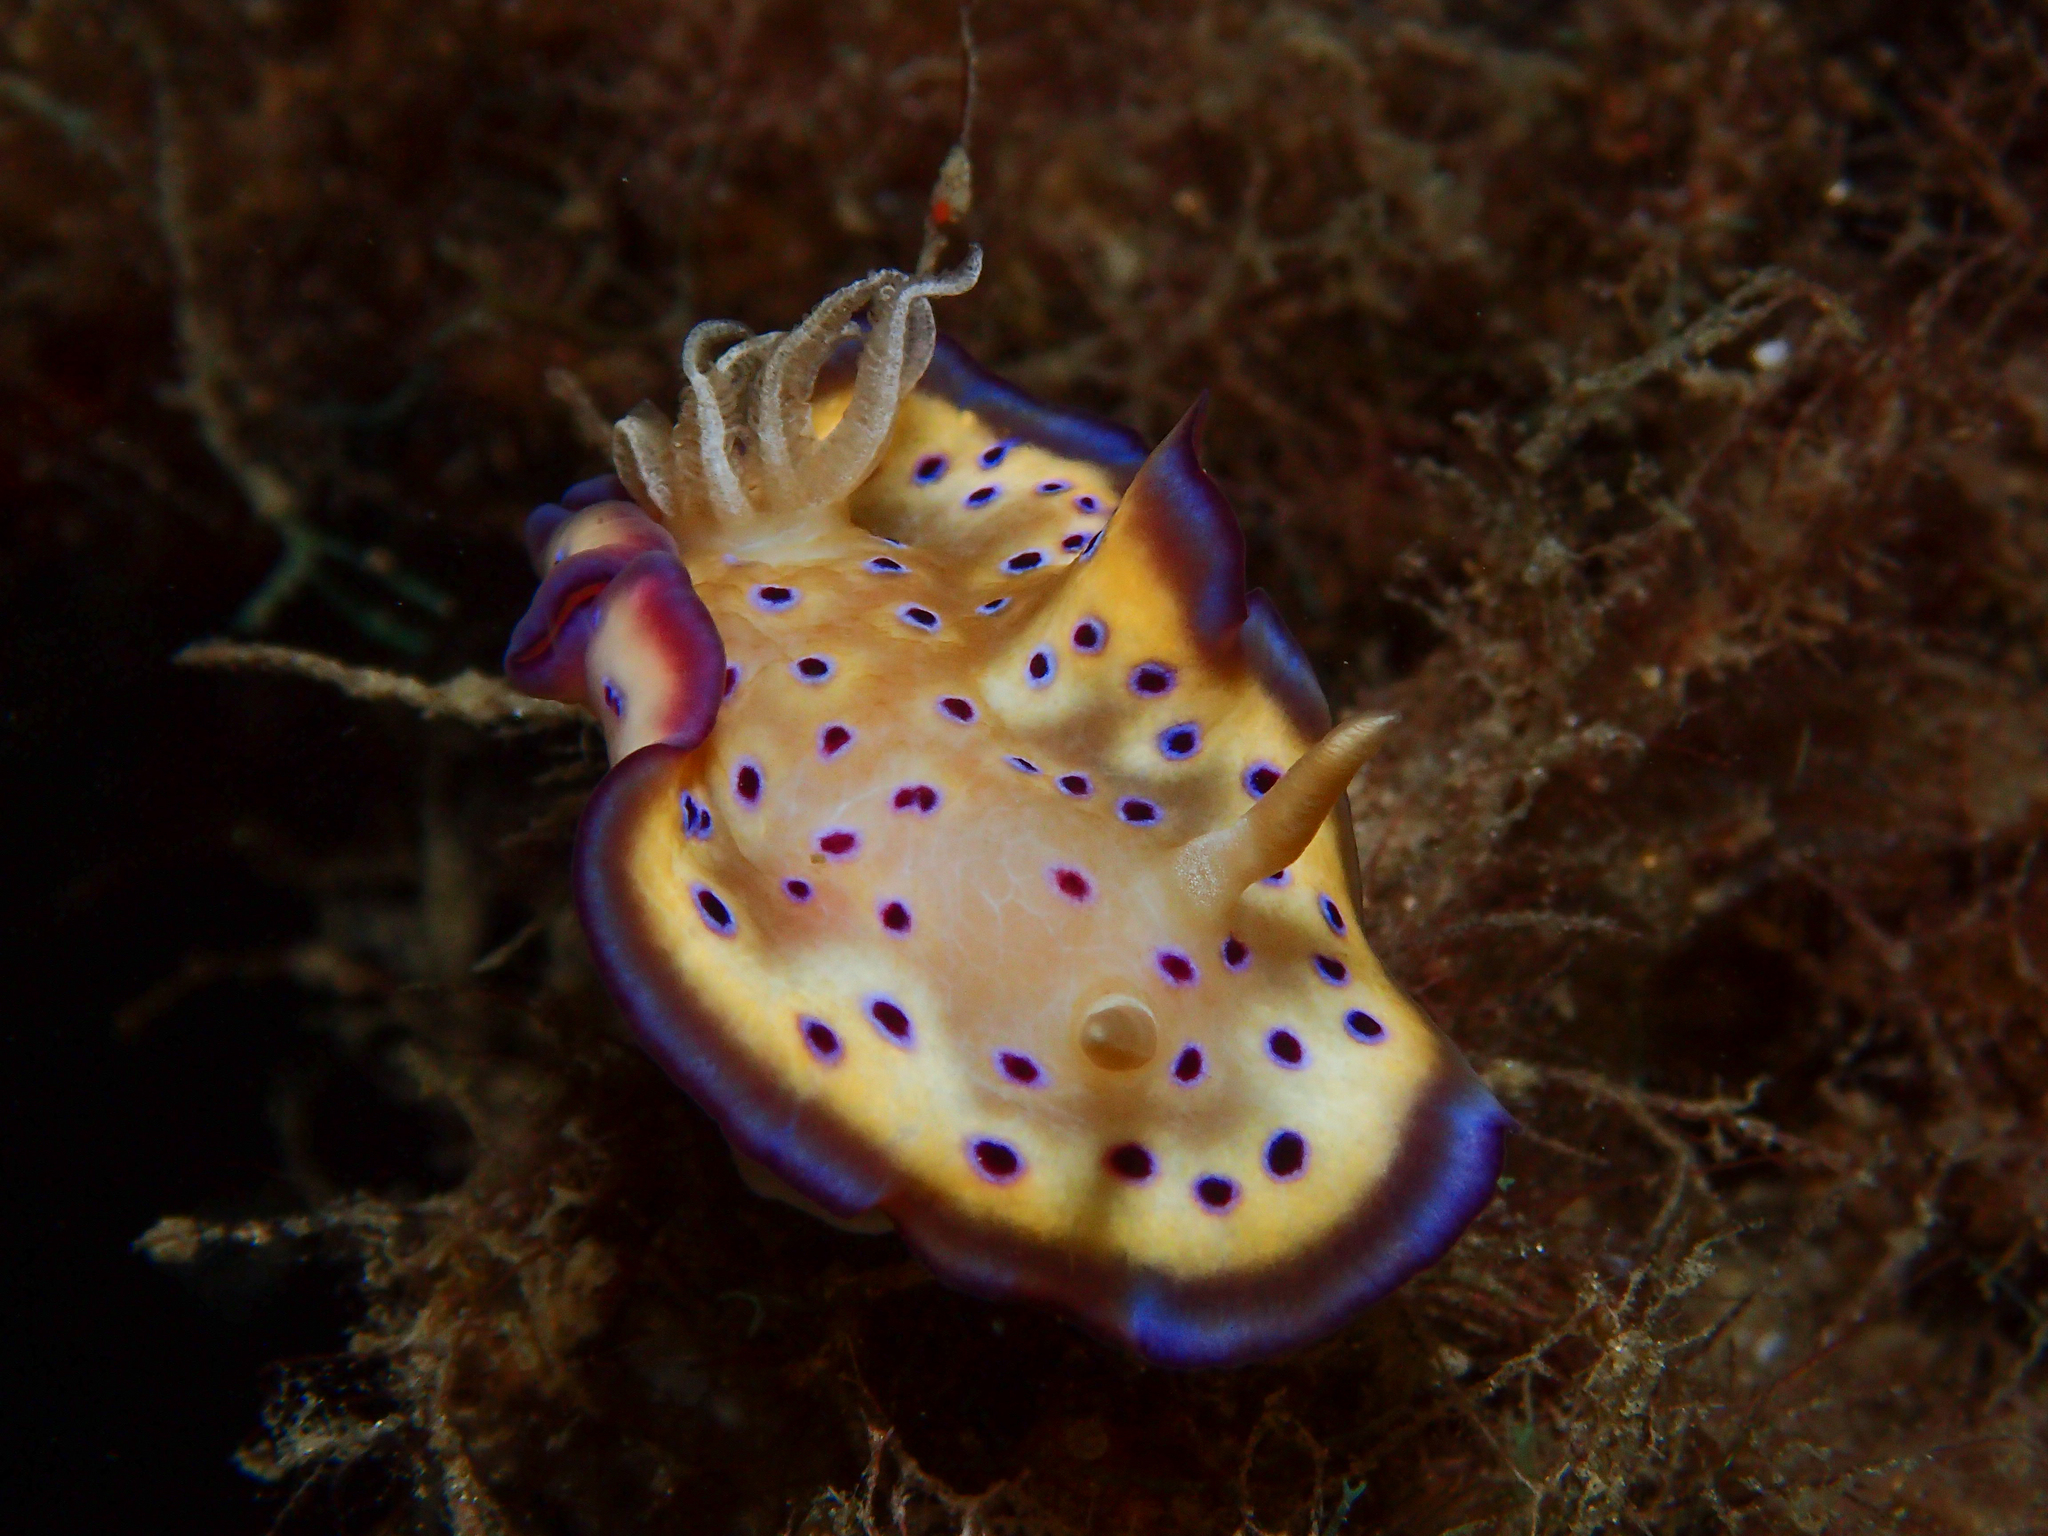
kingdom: Animalia
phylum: Mollusca
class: Gastropoda
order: Nudibranchia
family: Chromodorididae
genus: Goniobranchus
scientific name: Goniobranchus kuniei
